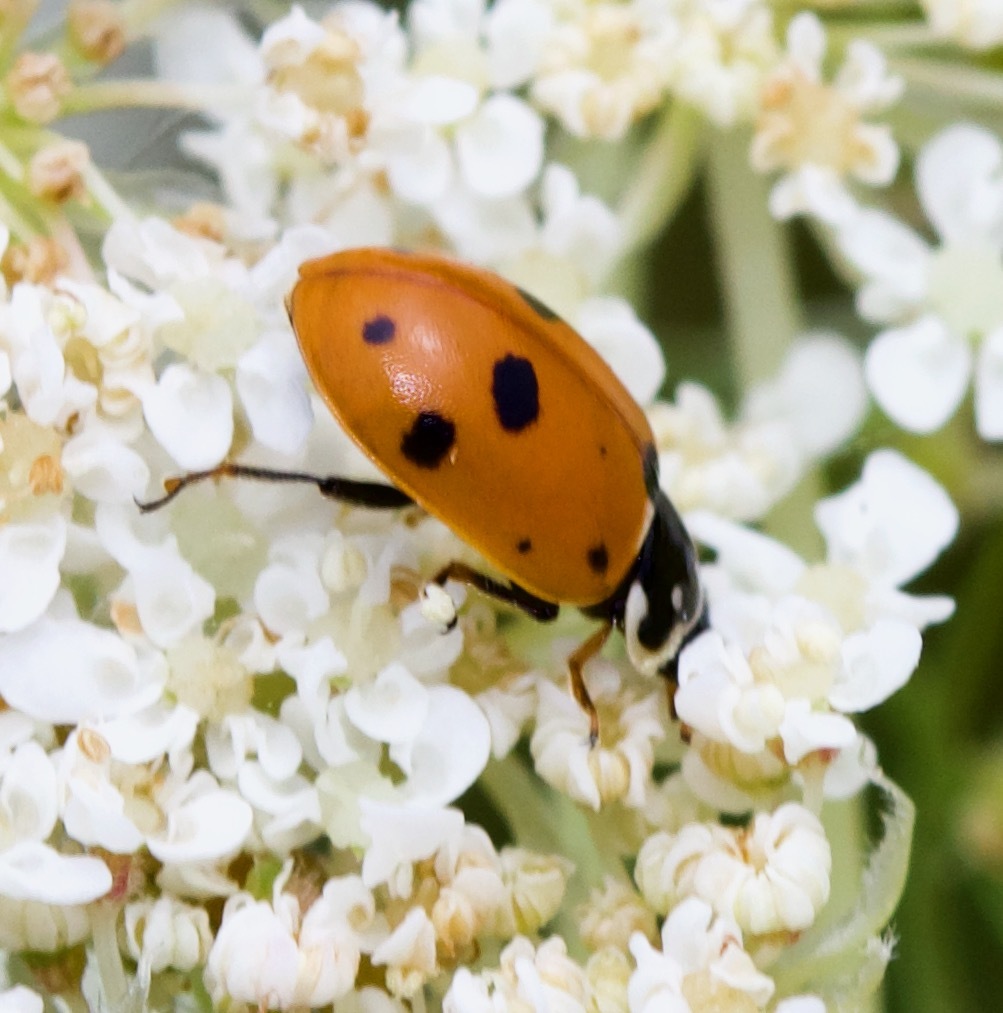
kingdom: Animalia
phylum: Arthropoda
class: Insecta
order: Coleoptera
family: Coccinellidae
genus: Hippodamia
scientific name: Hippodamia variegata
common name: Ladybird beetle
